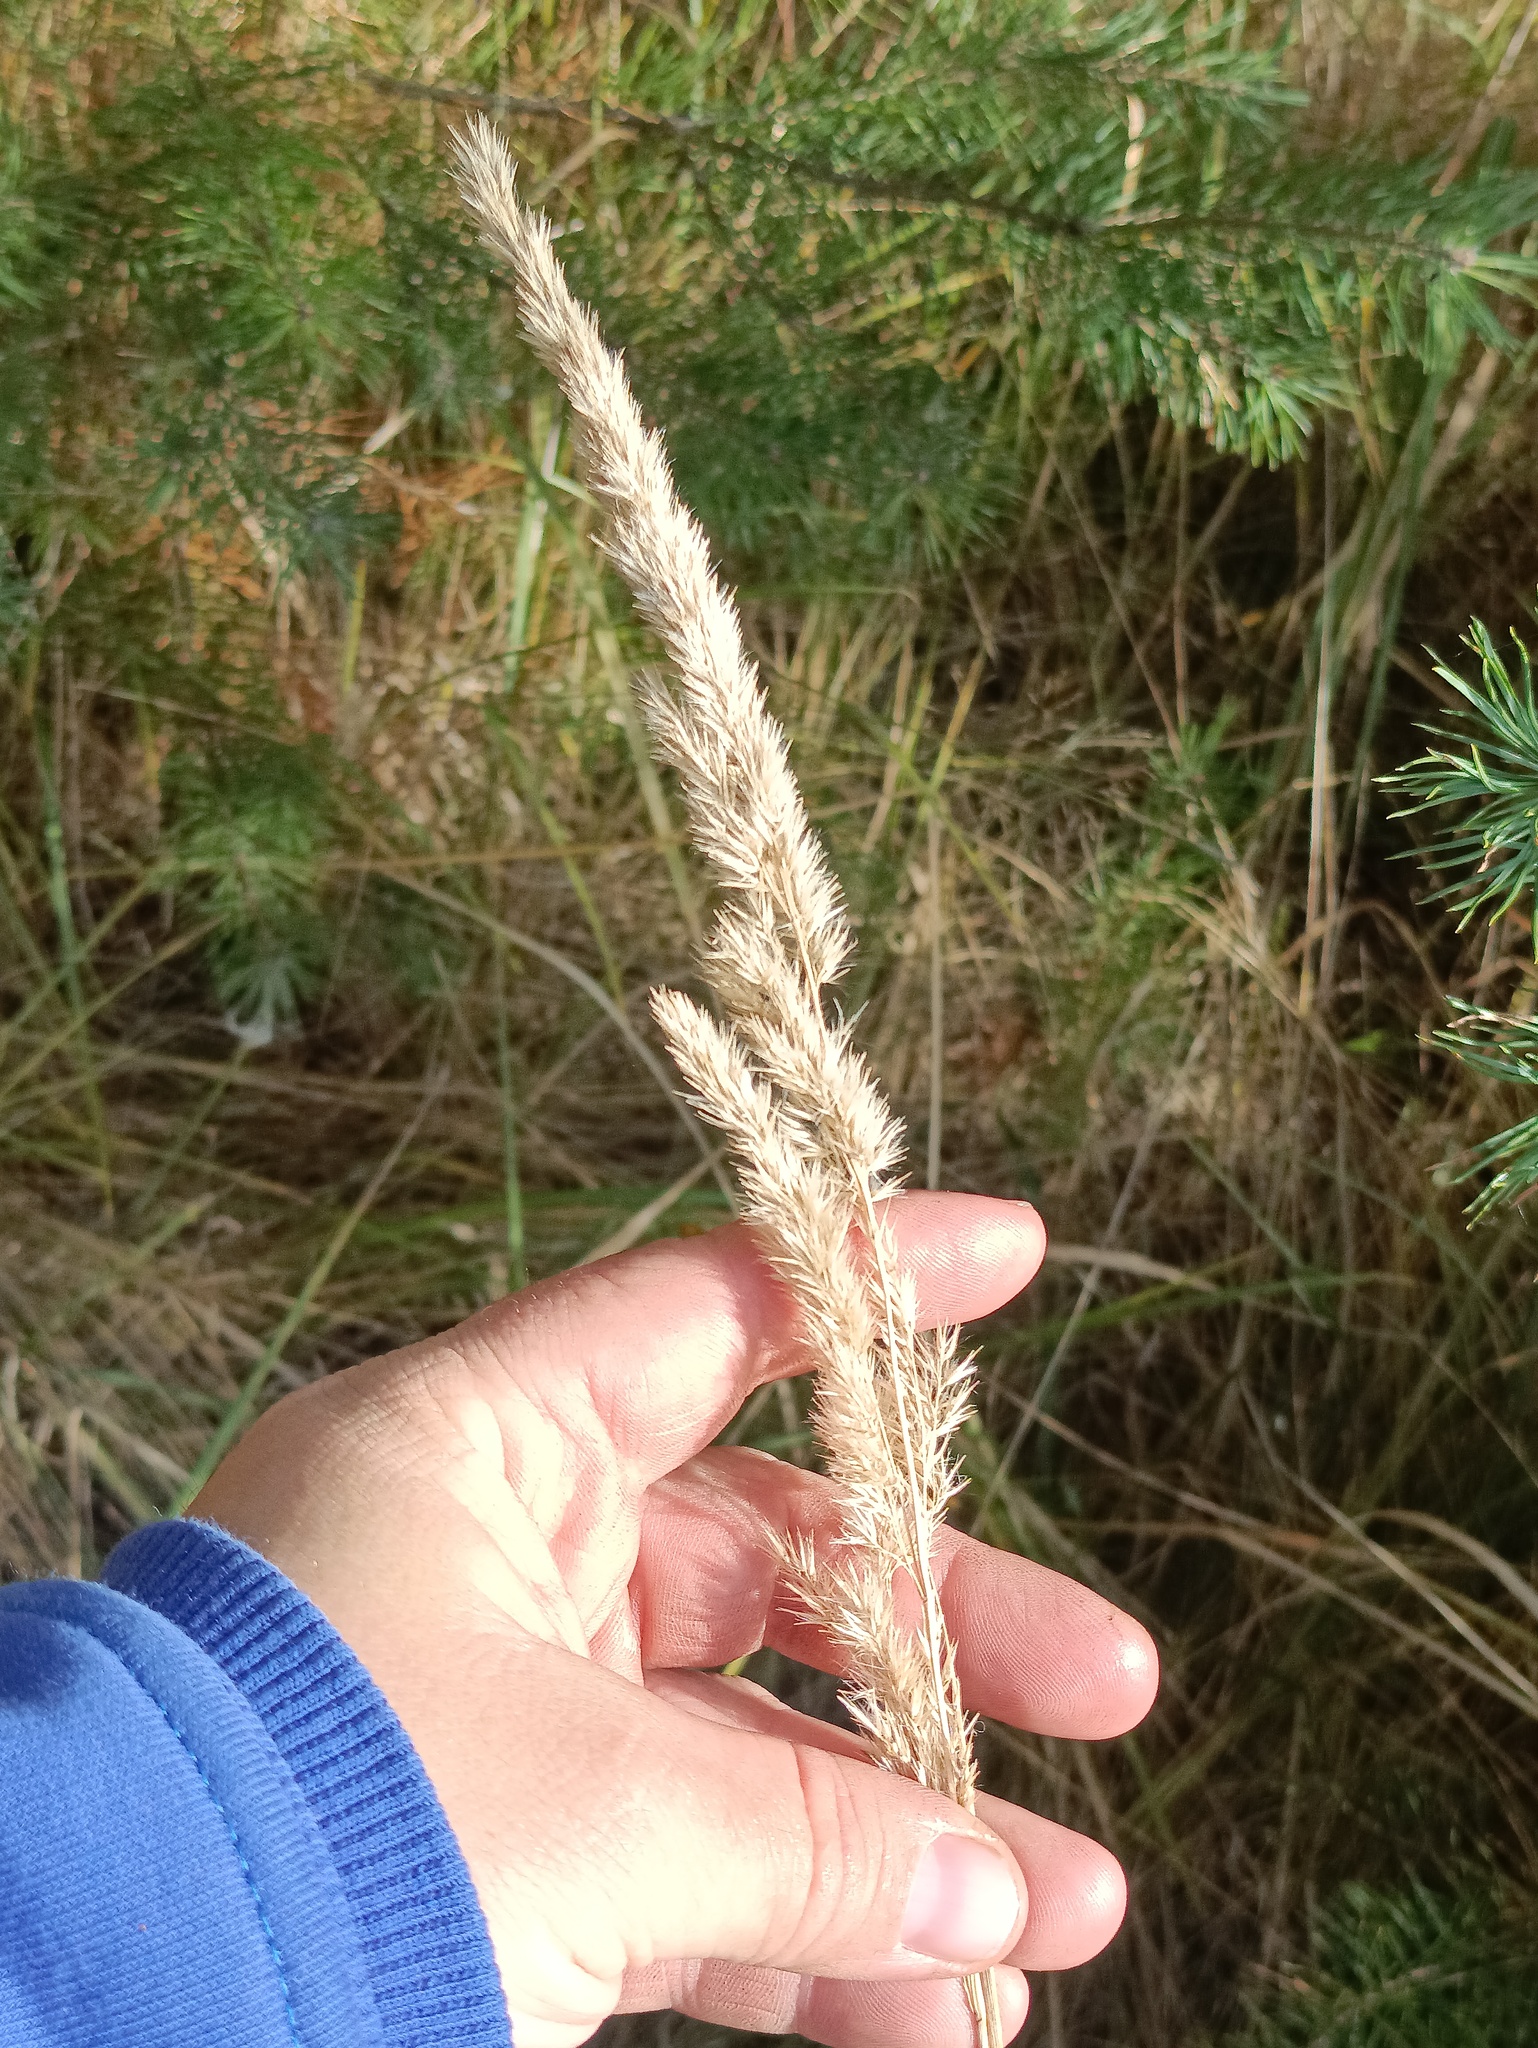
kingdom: Plantae
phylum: Tracheophyta
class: Liliopsida
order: Poales
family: Poaceae
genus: Calamagrostis
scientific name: Calamagrostis epigejos
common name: Wood small-reed
